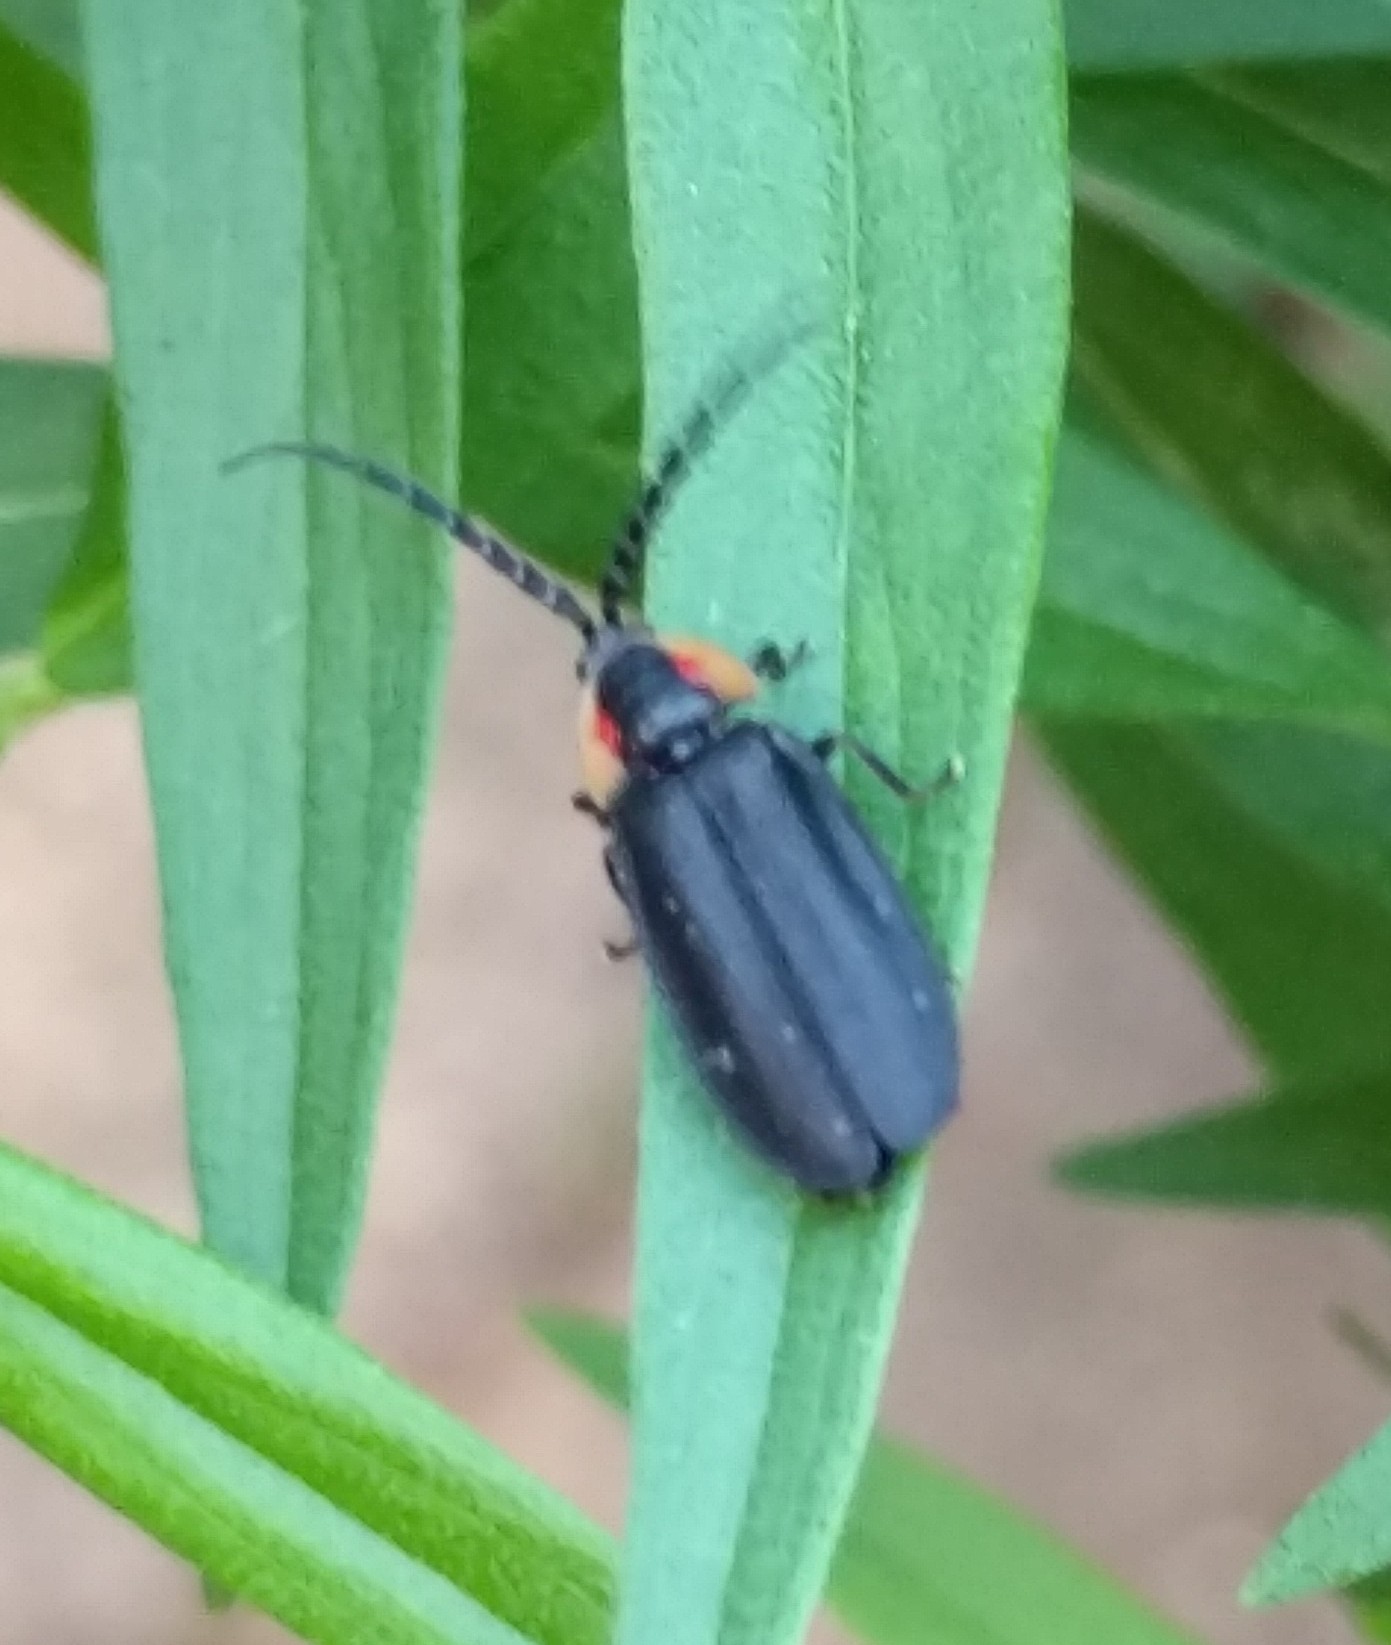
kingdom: Animalia
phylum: Arthropoda
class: Insecta
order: Coleoptera
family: Lampyridae
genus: Lucidota
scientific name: Lucidota atra
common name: Black firefly
